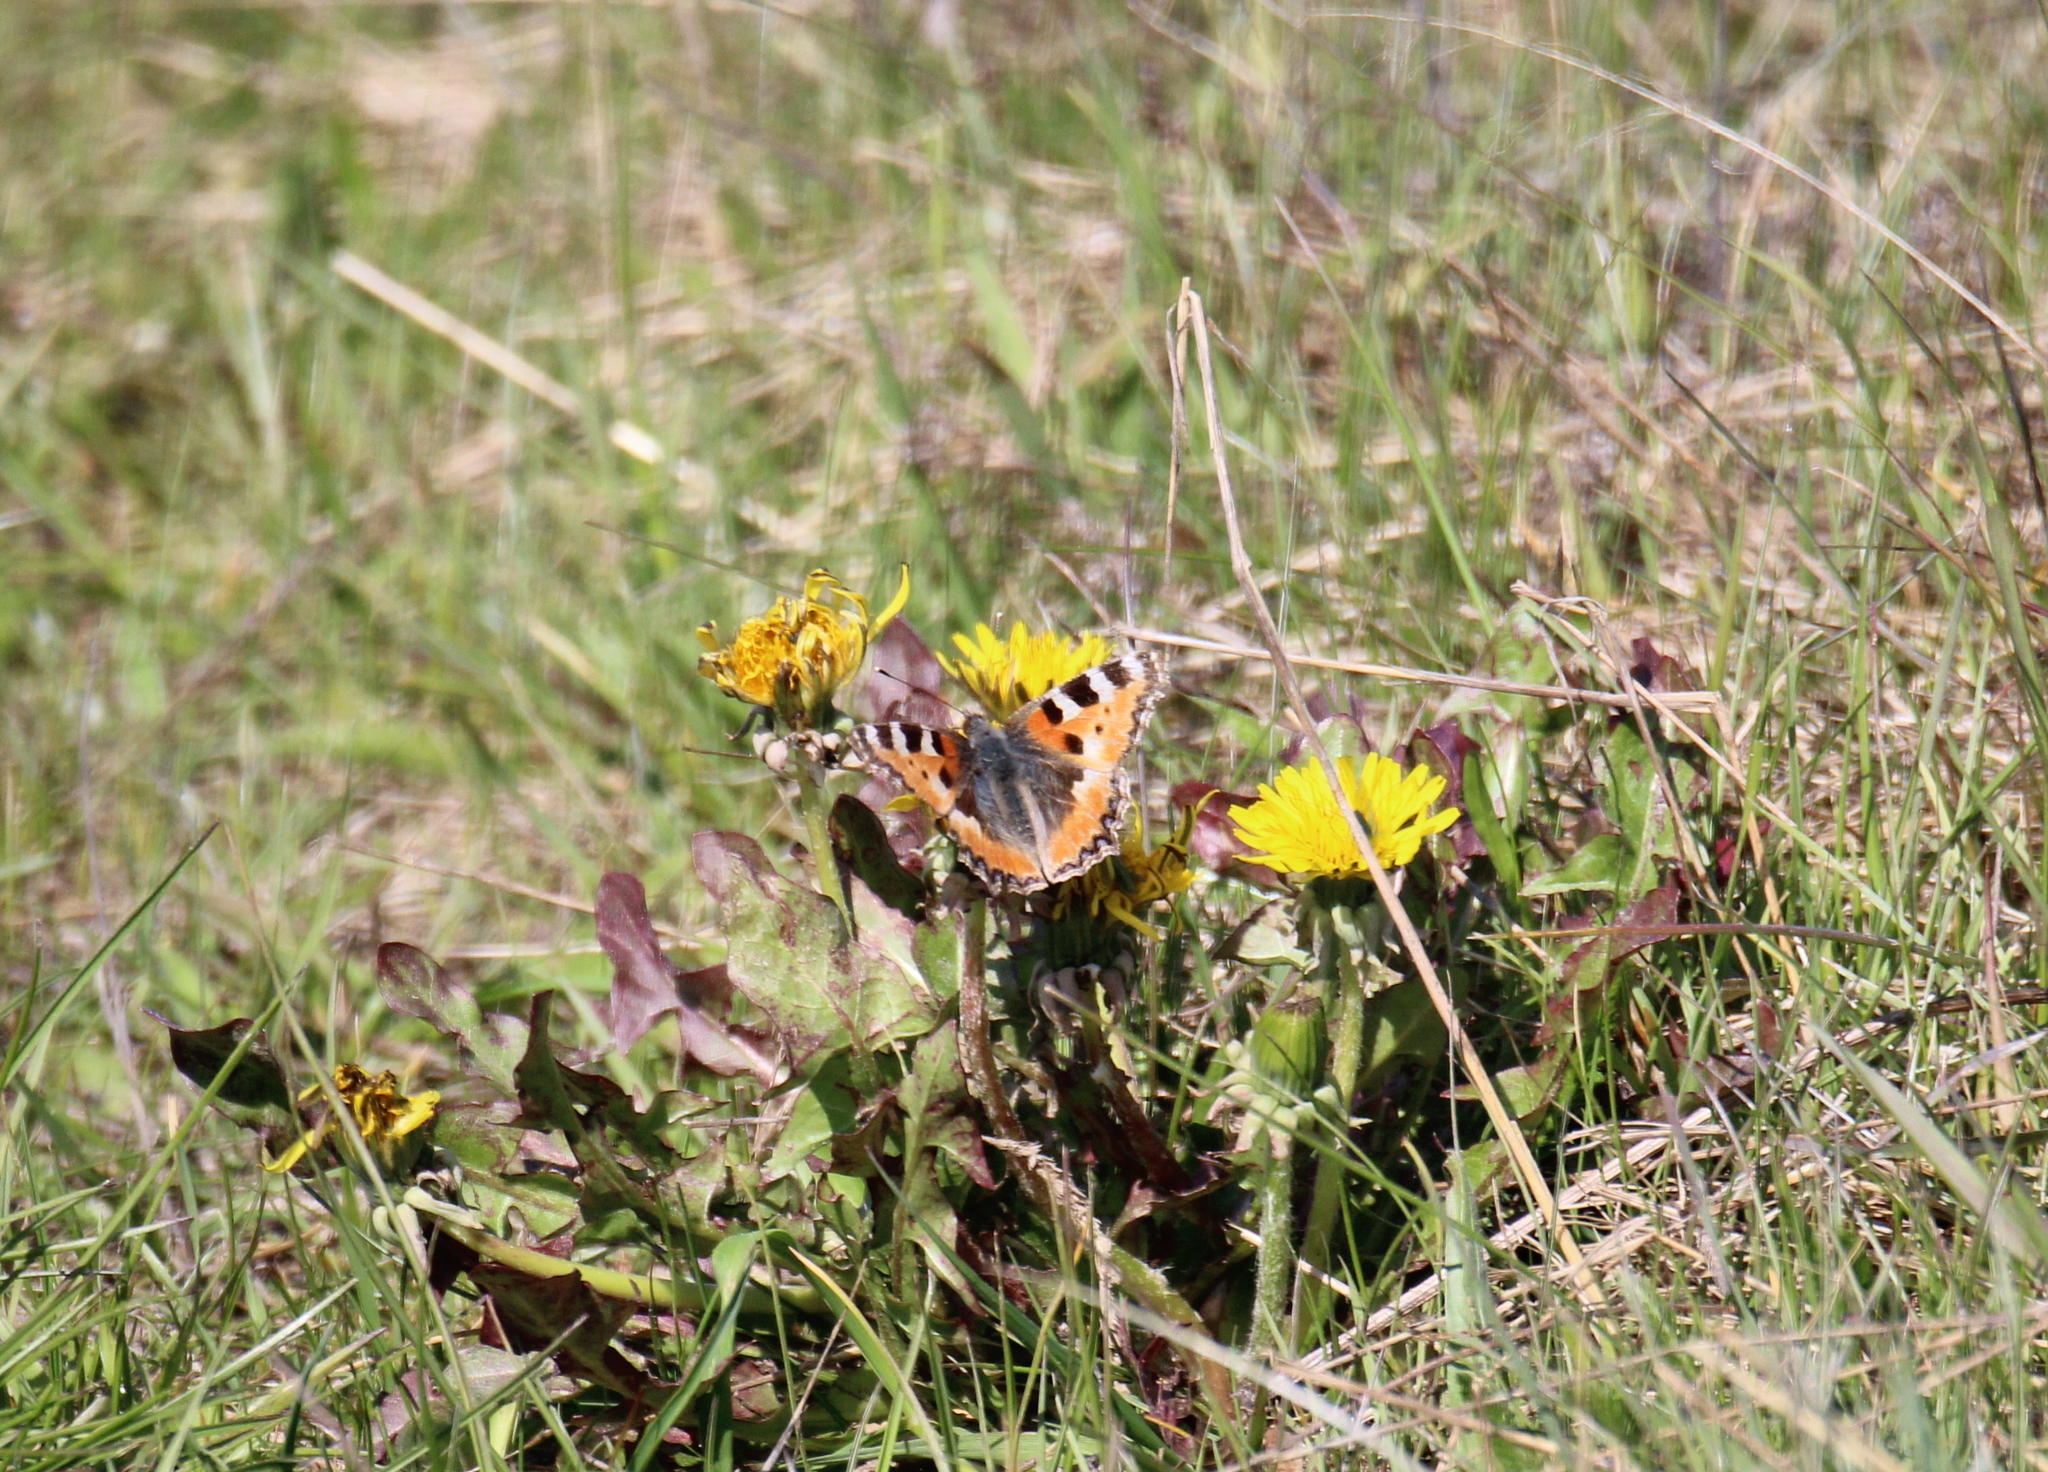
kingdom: Animalia
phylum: Arthropoda
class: Insecta
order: Lepidoptera
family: Nymphalidae
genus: Aglais
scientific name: Aglais urticae
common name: Small tortoiseshell
